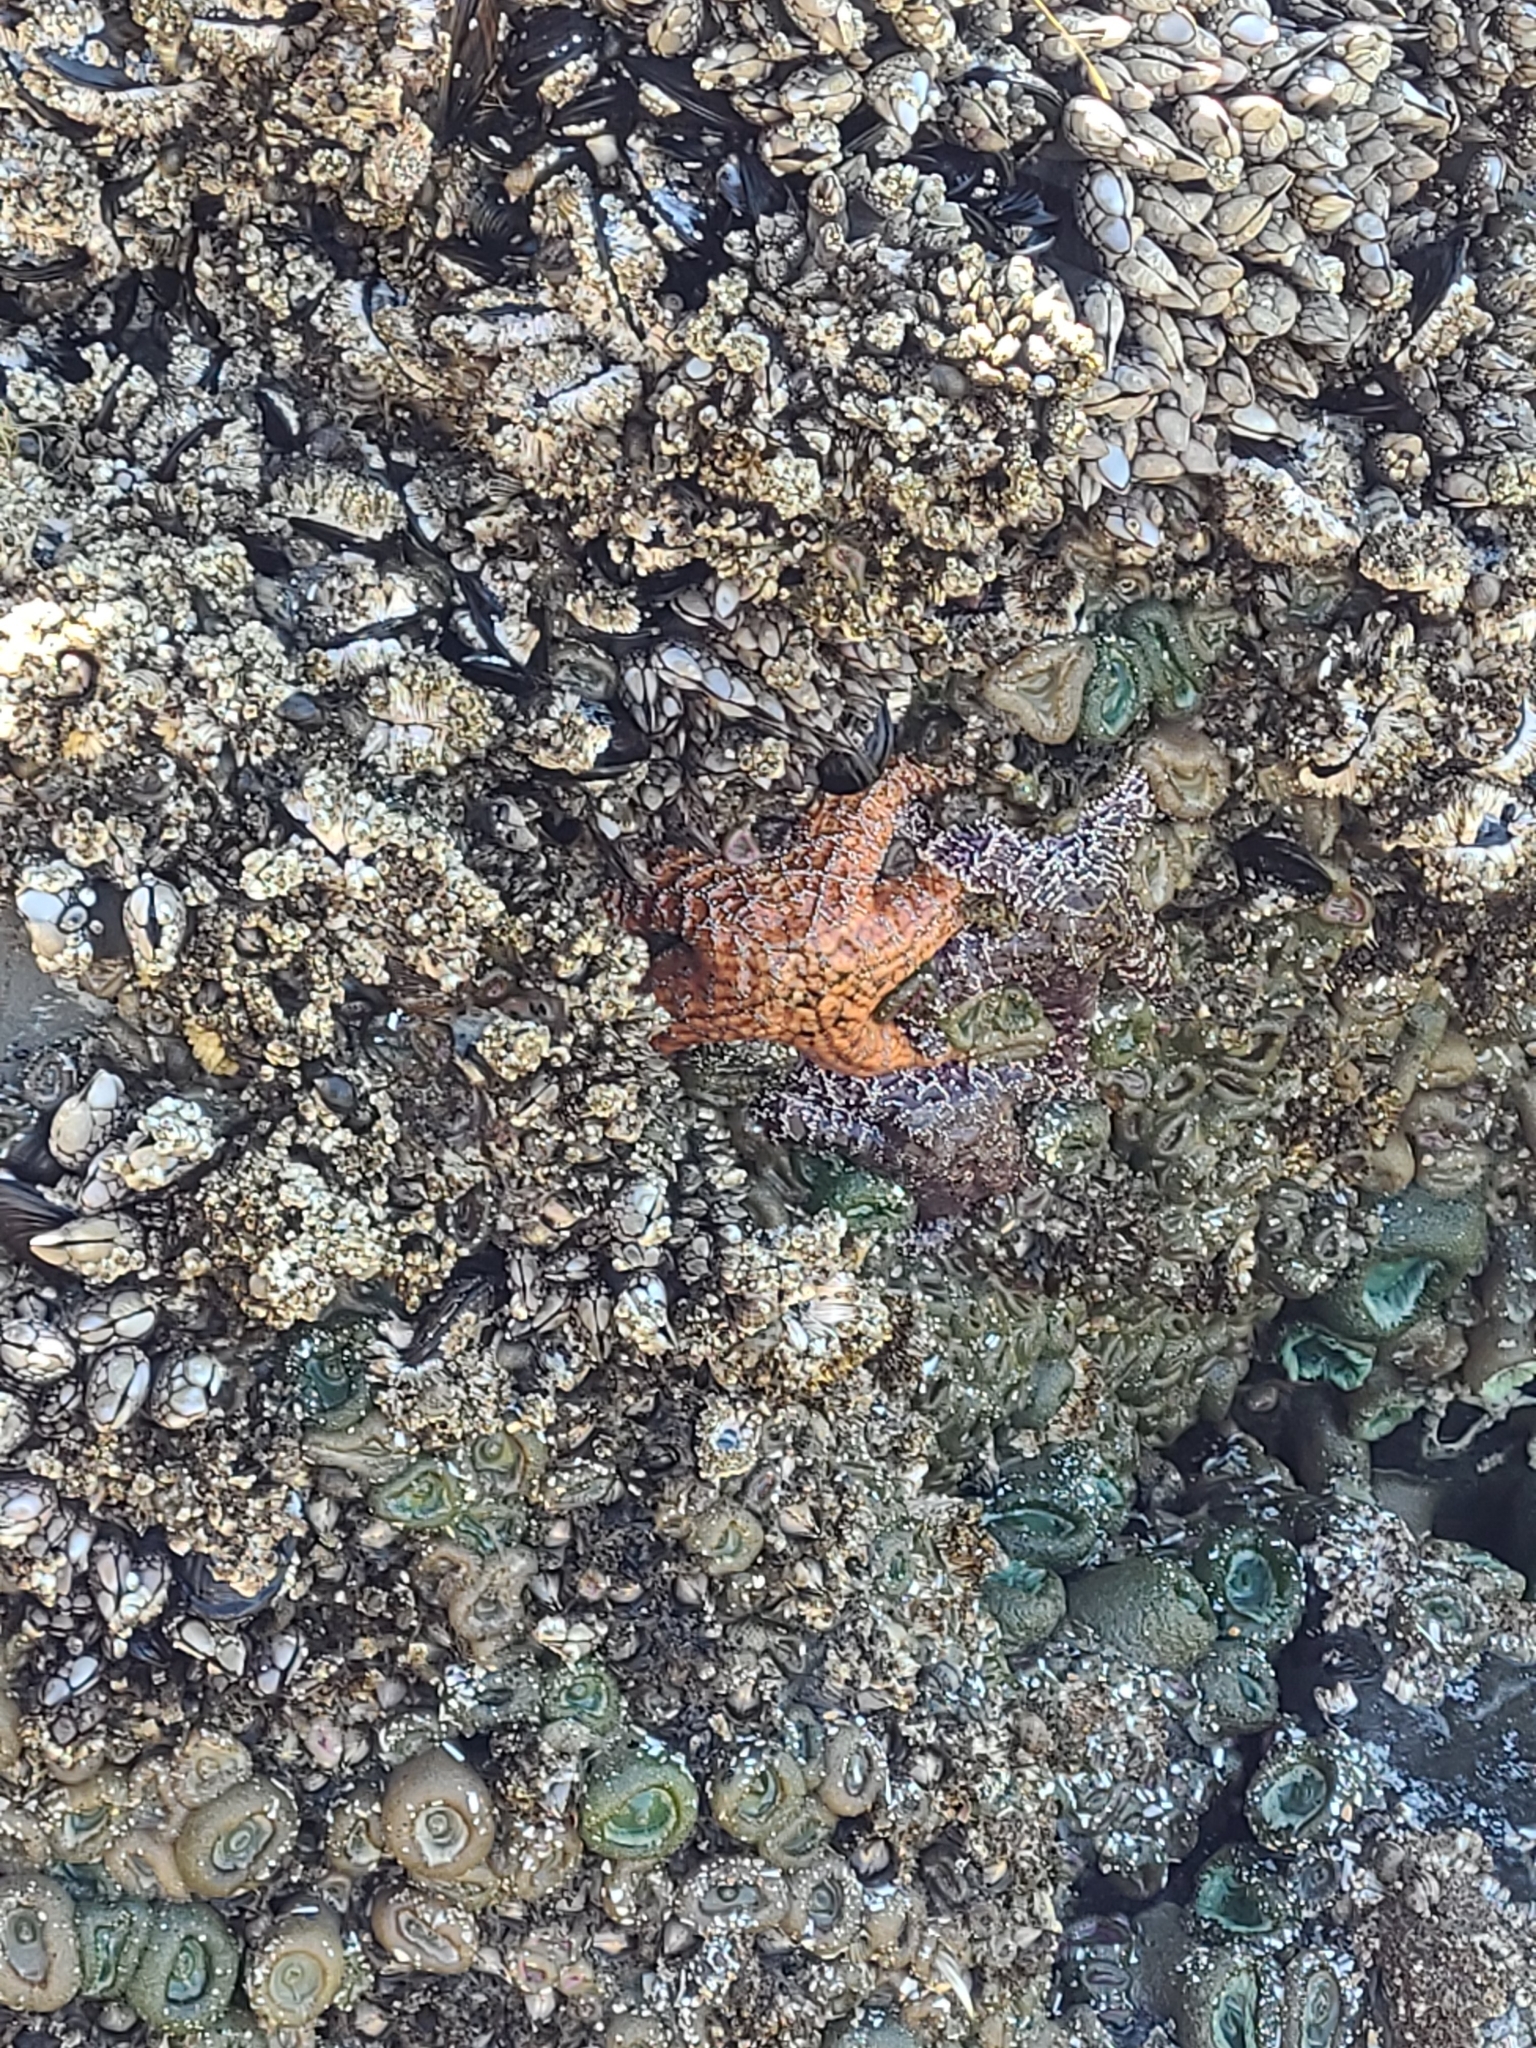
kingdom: Animalia
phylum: Echinodermata
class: Asteroidea
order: Forcipulatida
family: Asteriidae
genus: Pisaster
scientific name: Pisaster ochraceus
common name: Ochre stars
